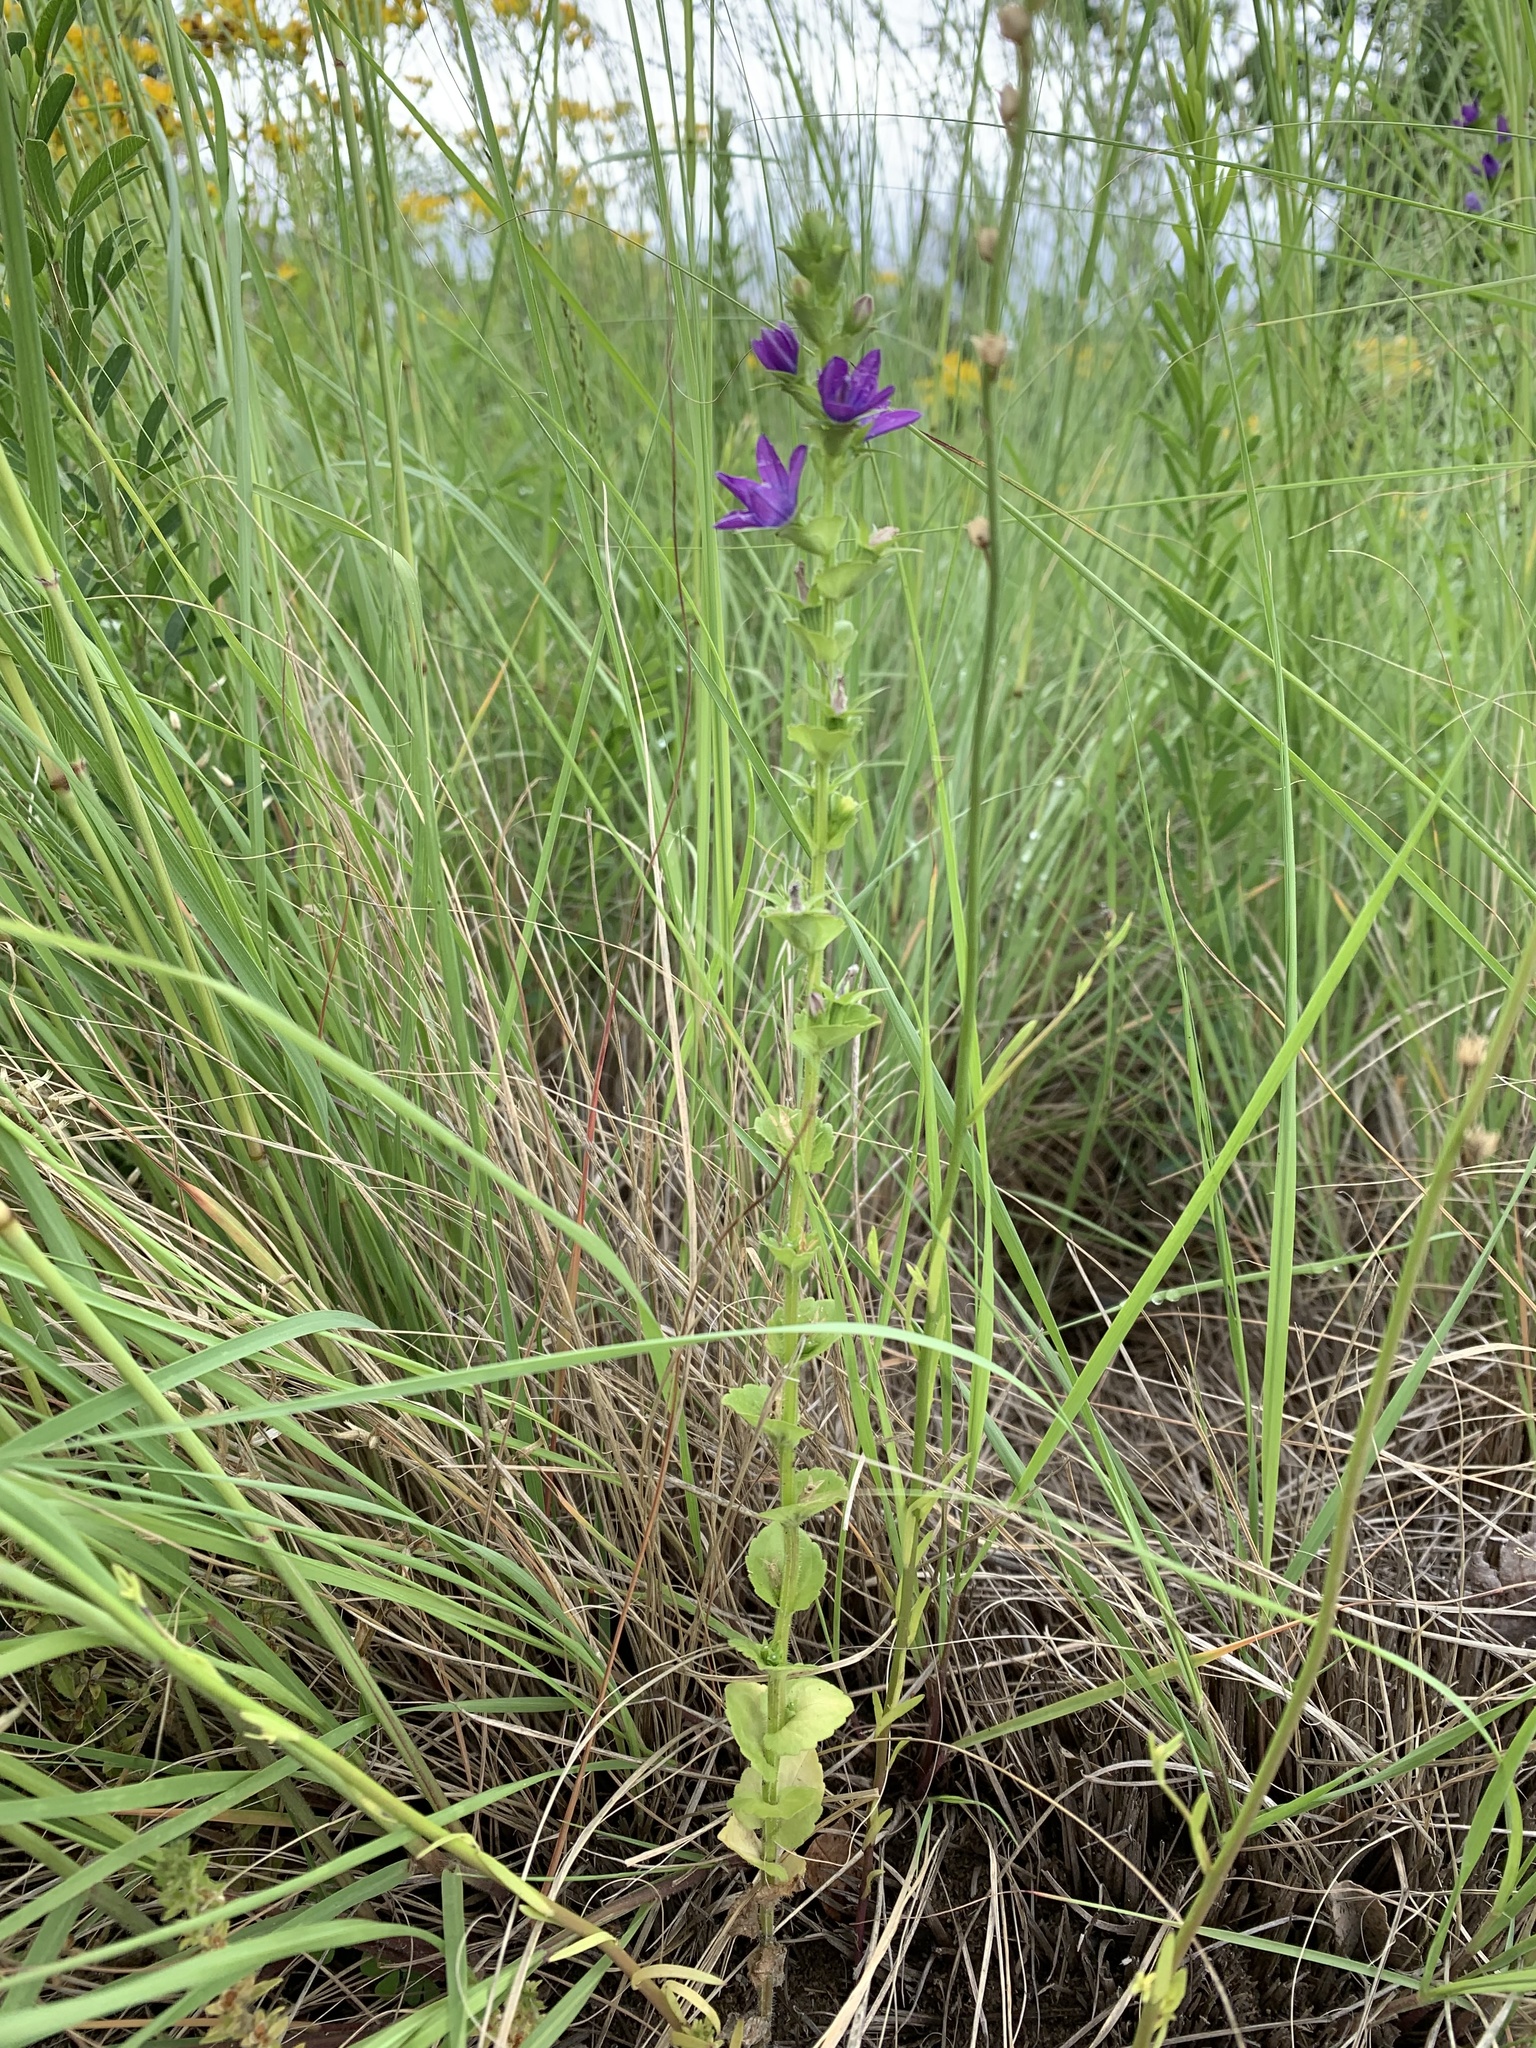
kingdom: Plantae
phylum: Tracheophyta
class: Magnoliopsida
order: Asterales
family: Campanulaceae
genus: Triodanis
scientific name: Triodanis perfoliata
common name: Clasping venus' looking-glass
